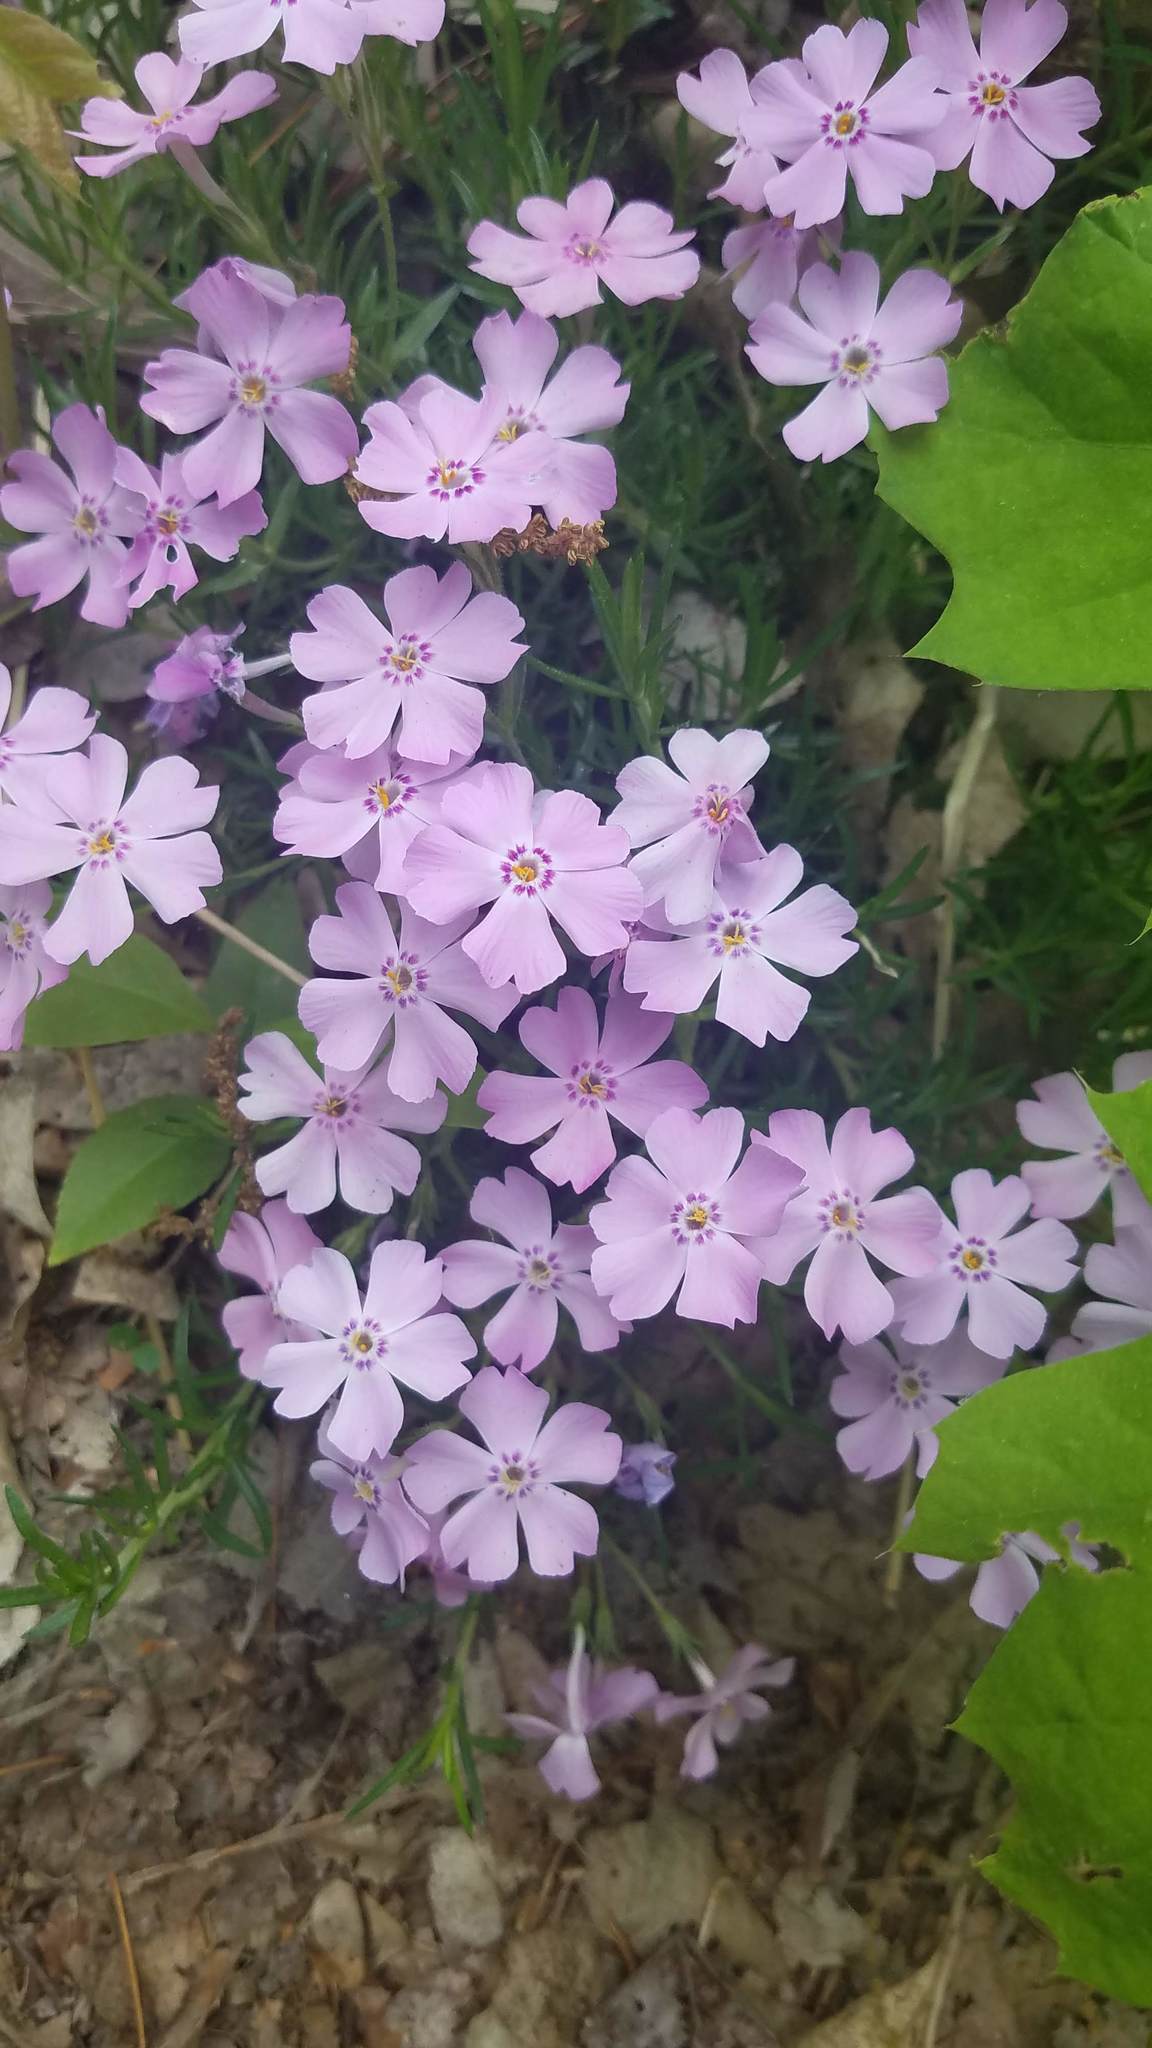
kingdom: Plantae
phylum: Tracheophyta
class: Magnoliopsida
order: Ericales
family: Polemoniaceae
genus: Phlox
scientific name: Phlox subulata
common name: Moss phlox
